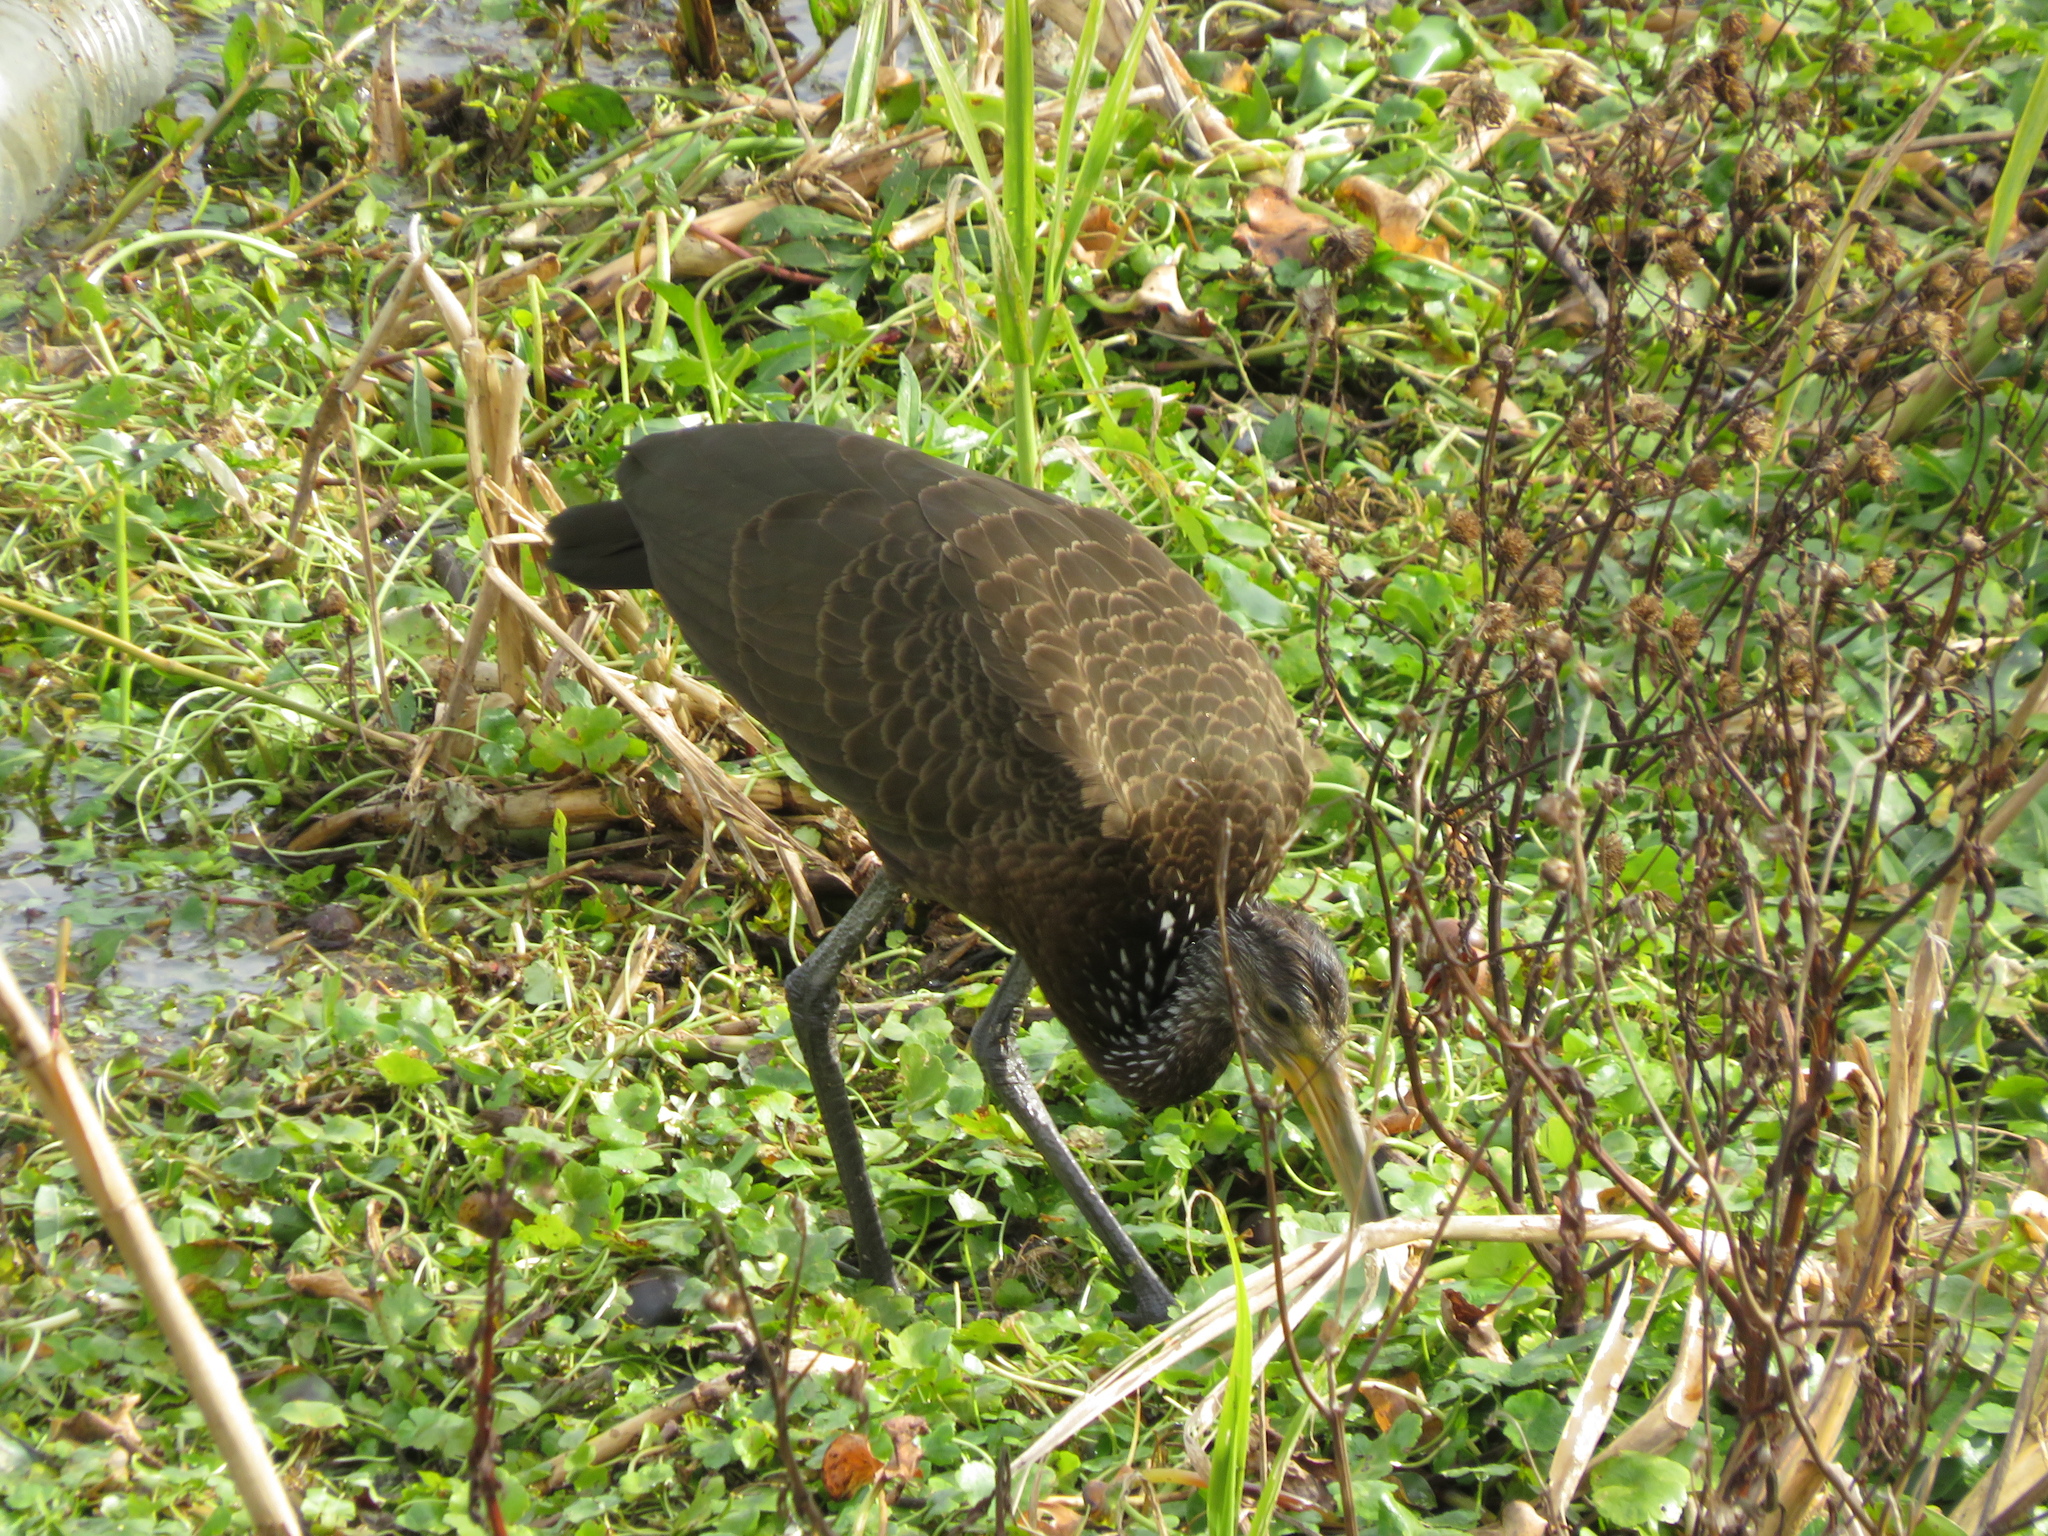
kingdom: Animalia
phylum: Chordata
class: Aves
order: Gruiformes
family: Aramidae
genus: Aramus
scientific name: Aramus guarauna
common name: Limpkin
